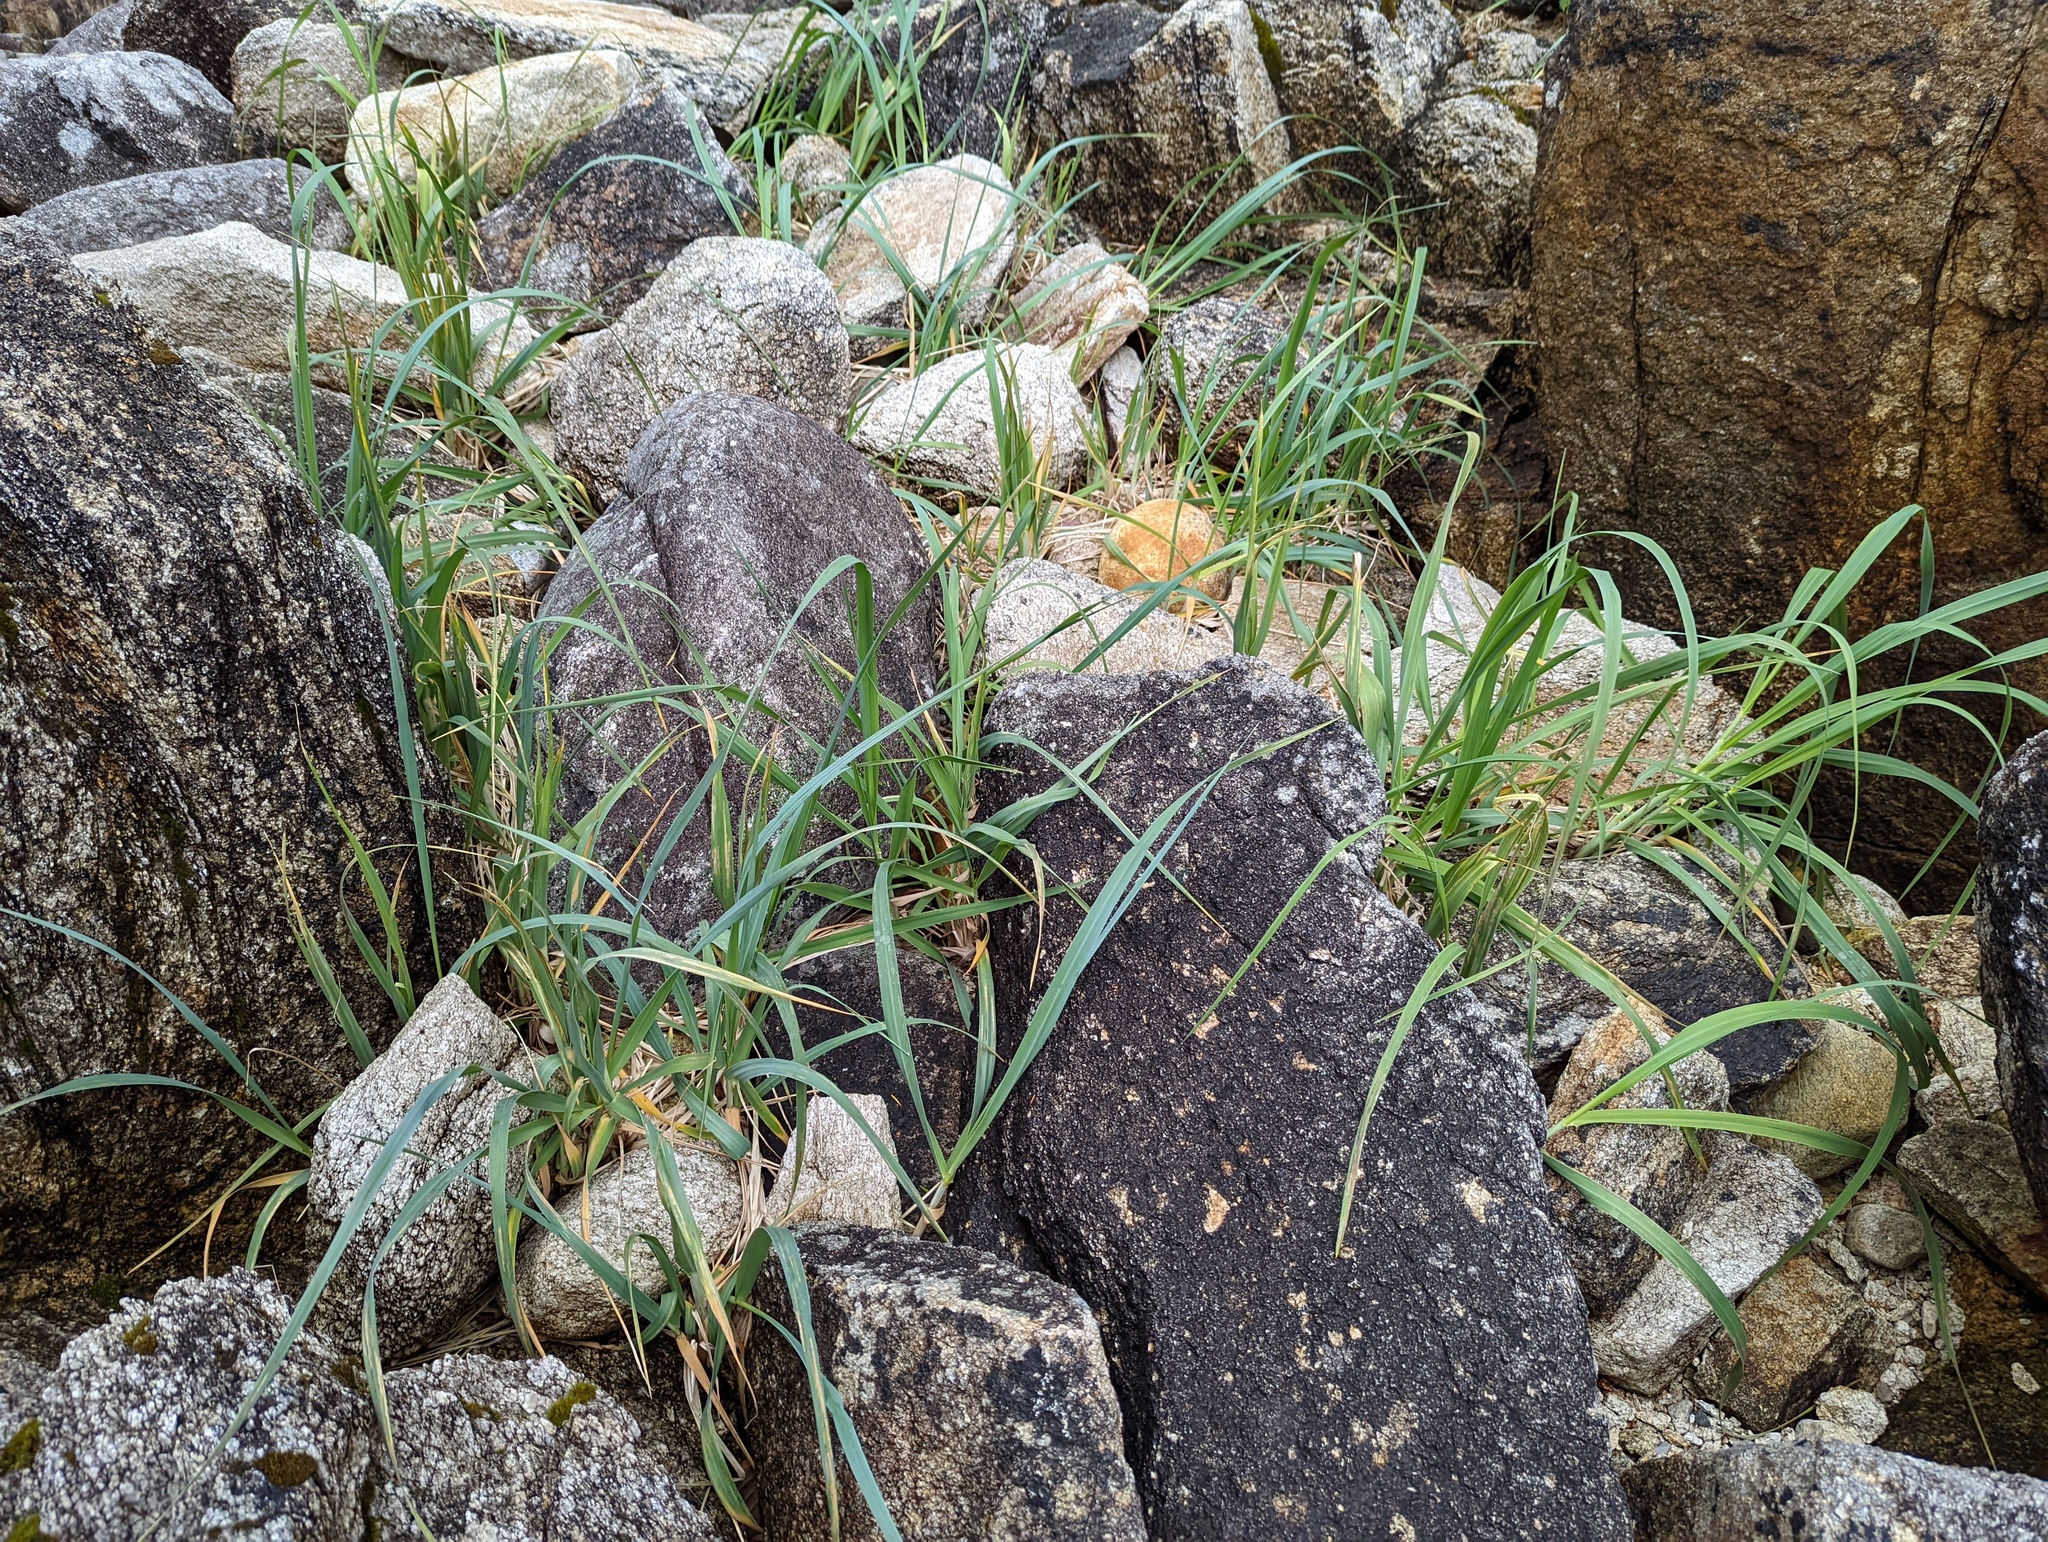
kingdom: Plantae
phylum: Tracheophyta
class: Liliopsida
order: Poales
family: Poaceae
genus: Leymus
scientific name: Leymus mollis
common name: American dune grass
